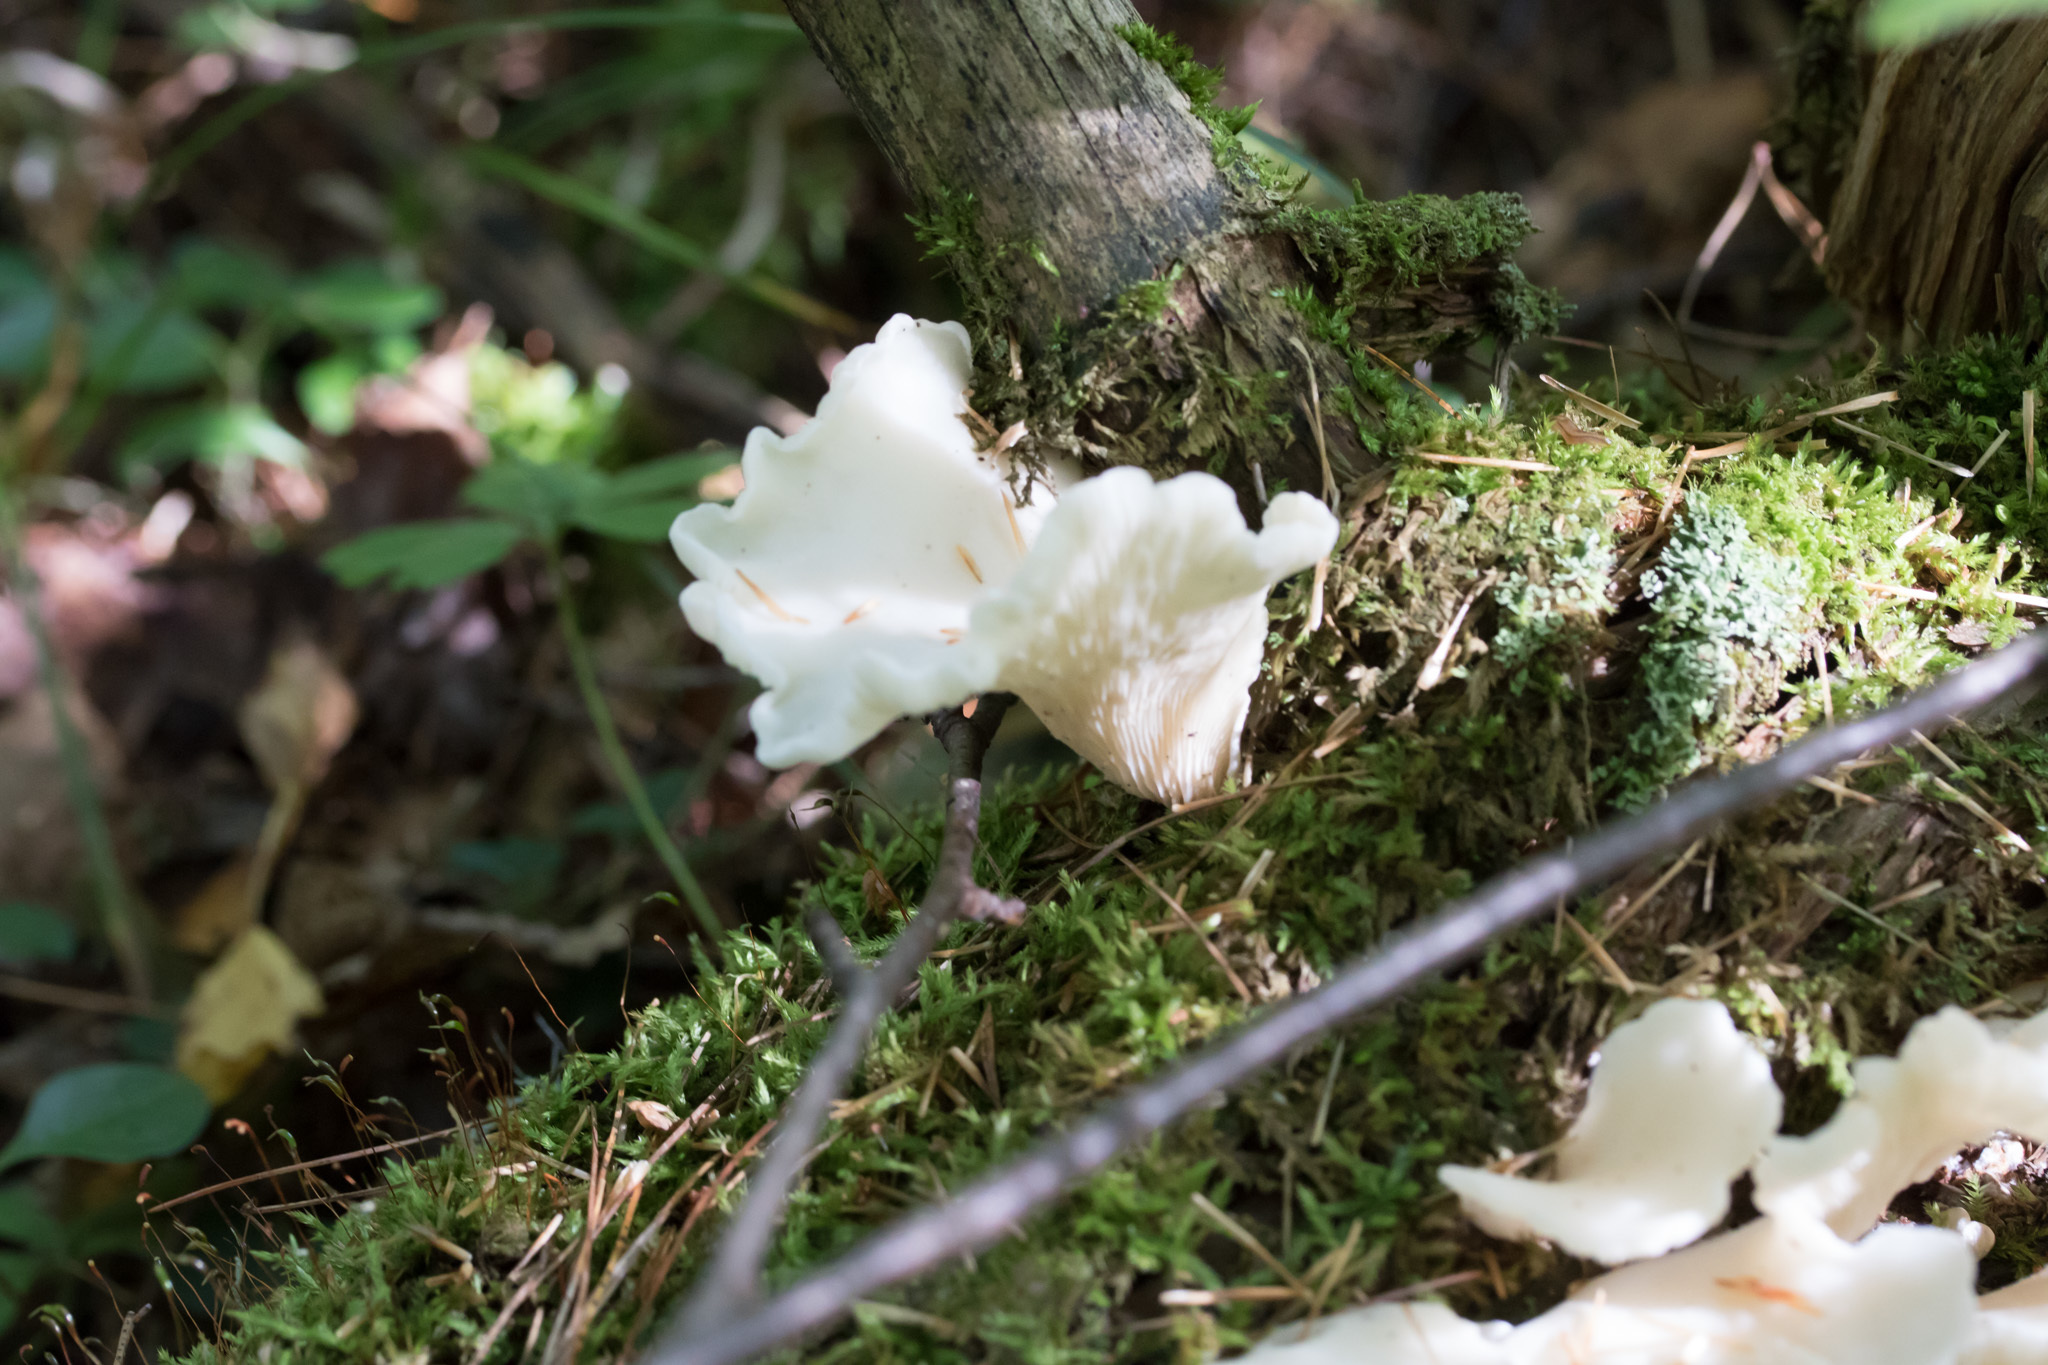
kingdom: Fungi
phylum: Basidiomycota
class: Agaricomycetes
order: Agaricales
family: Marasmiaceae
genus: Pleurocybella
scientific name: Pleurocybella porrigens
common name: Angel's wings
